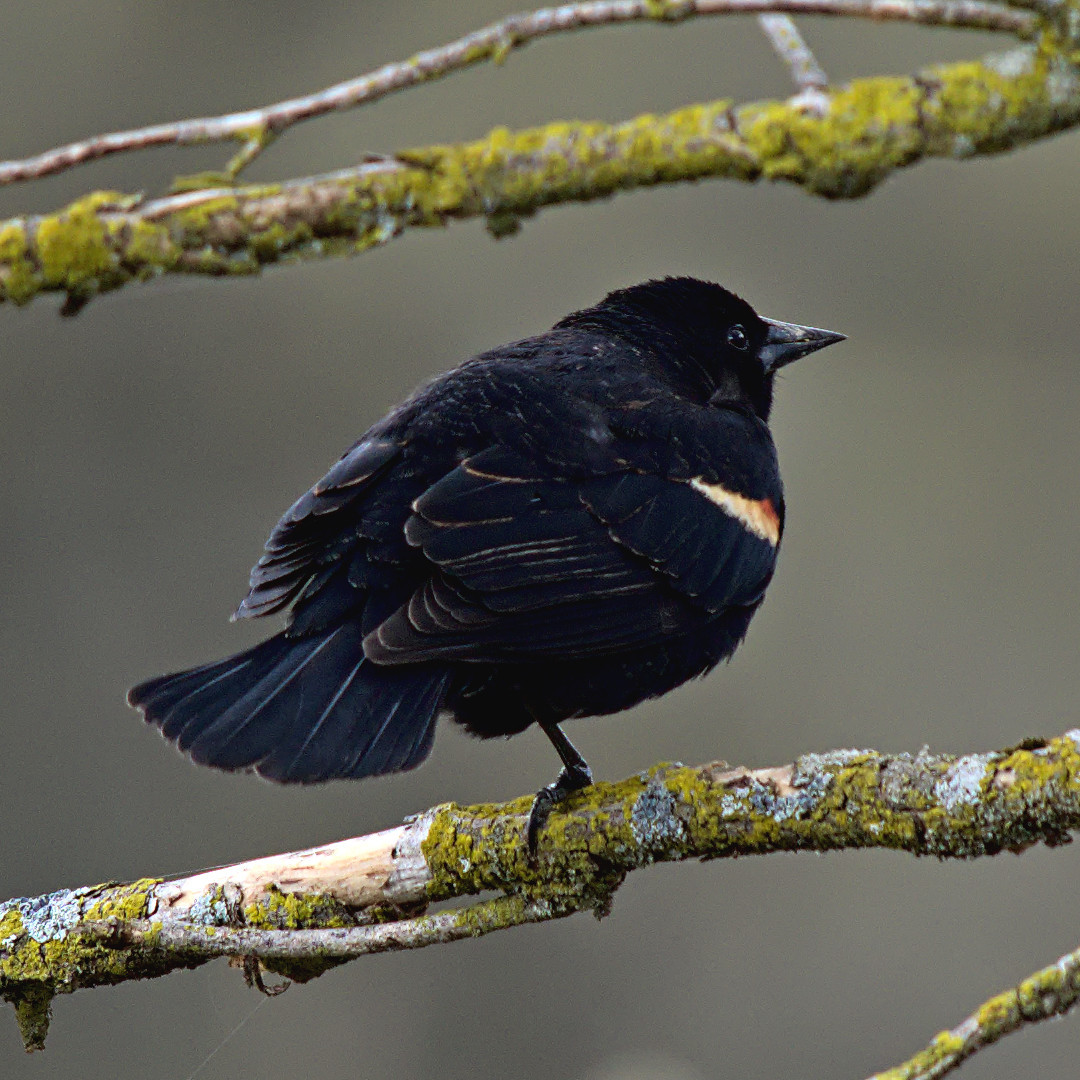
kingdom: Animalia
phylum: Chordata
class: Aves
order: Passeriformes
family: Icteridae
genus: Agelaius
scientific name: Agelaius phoeniceus
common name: Red-winged blackbird
